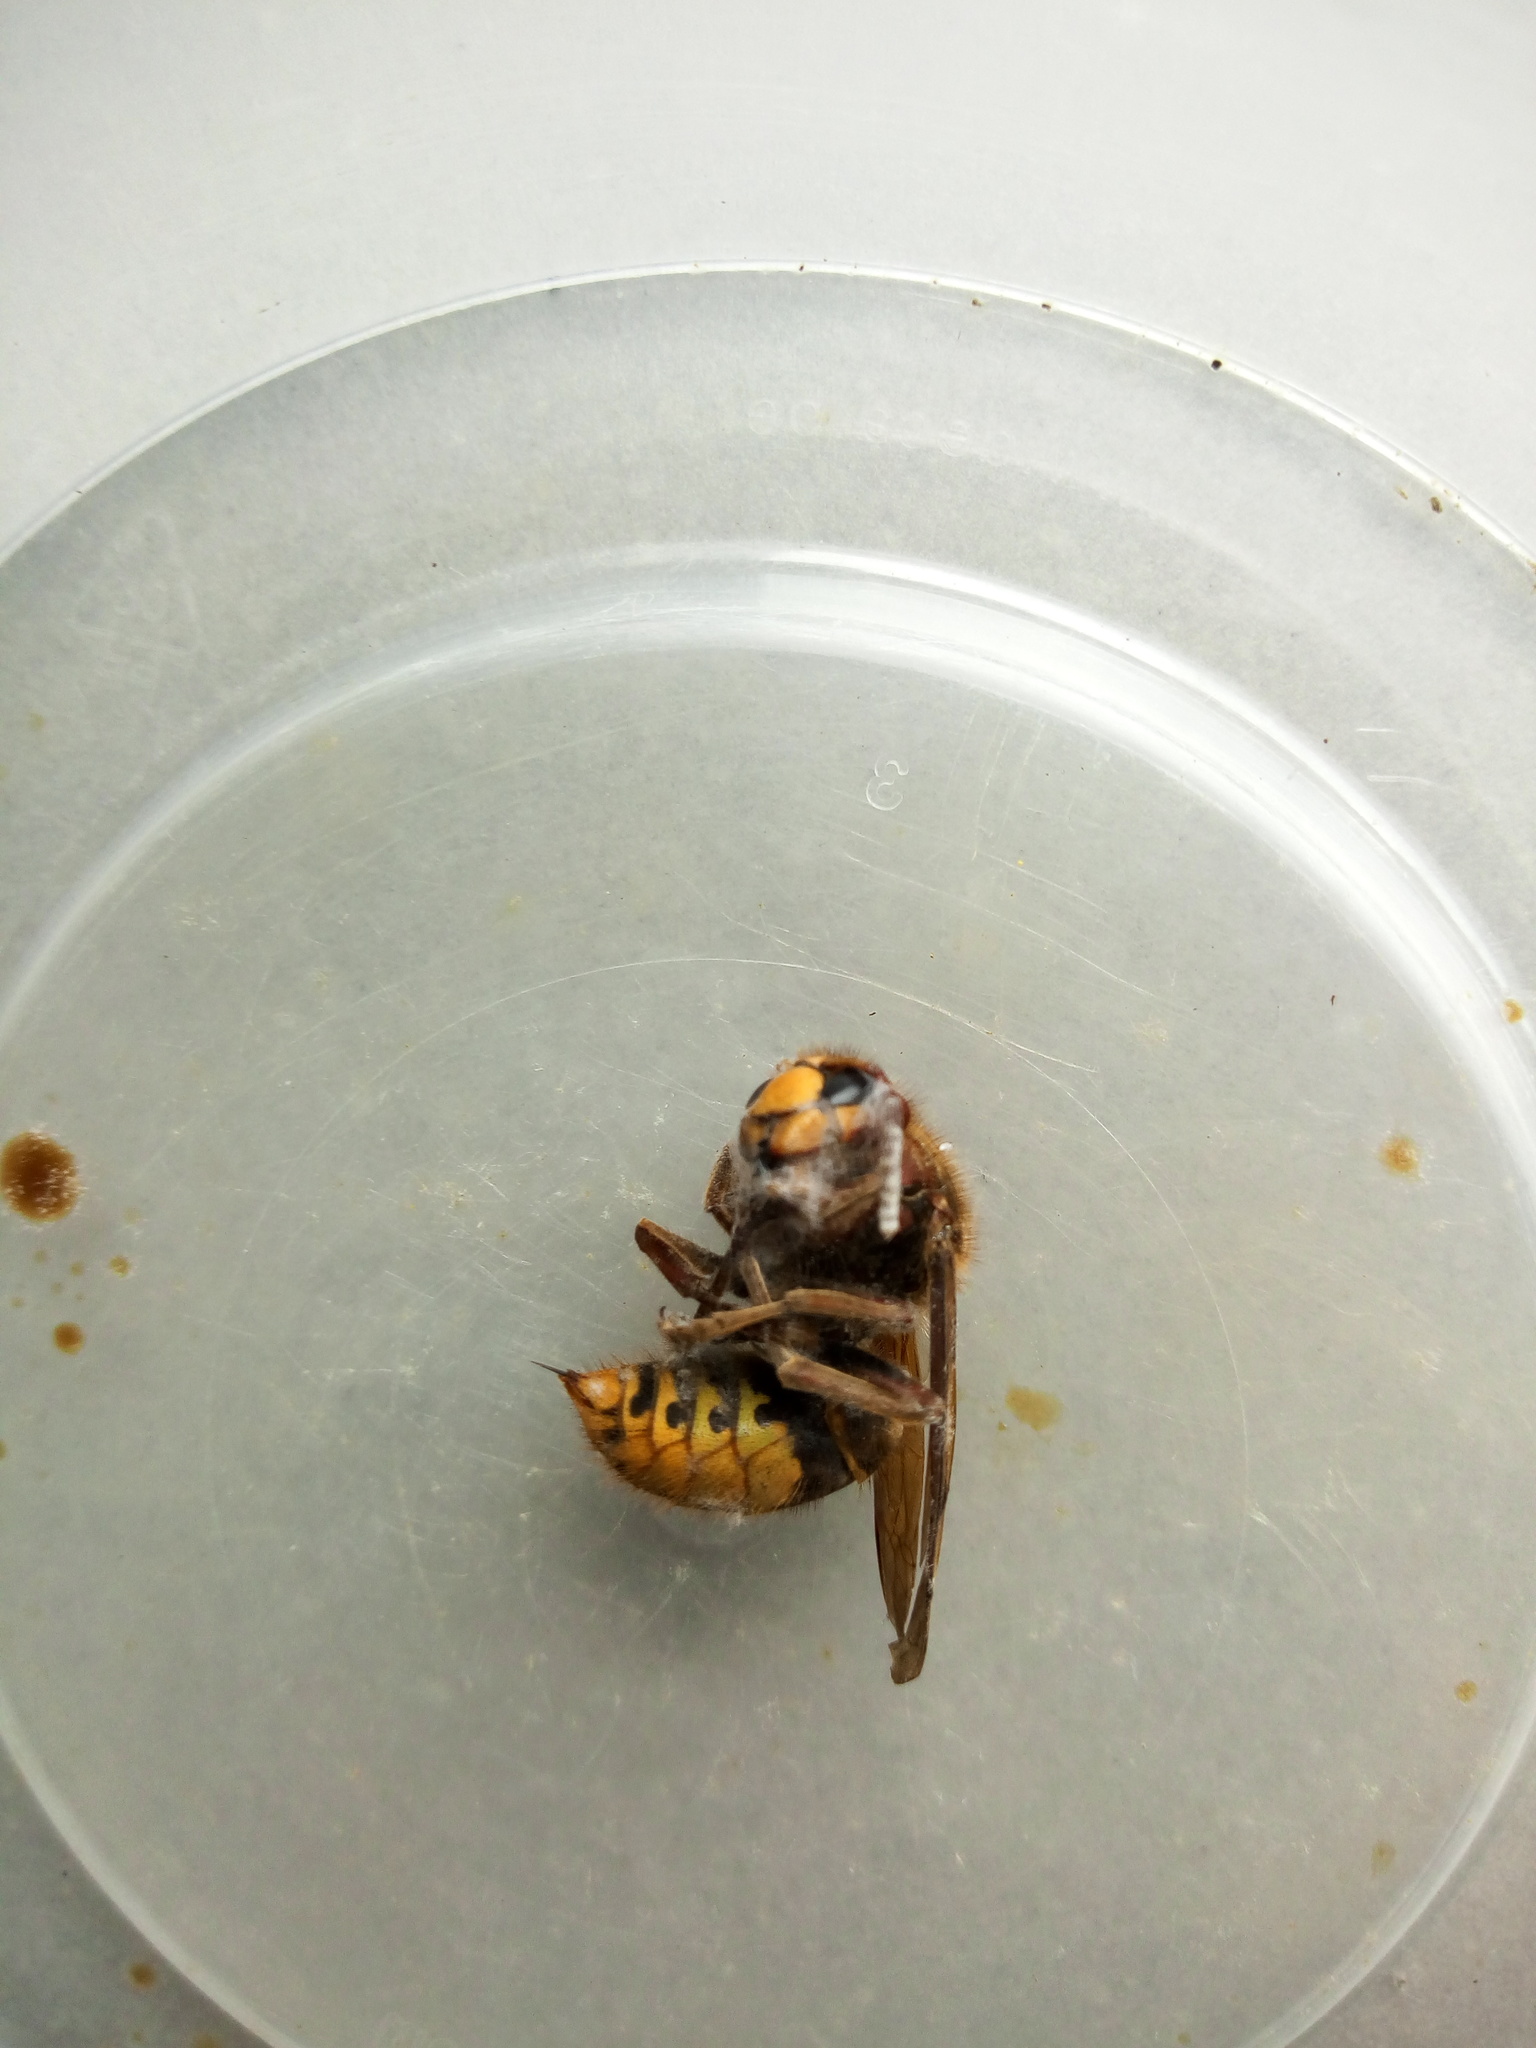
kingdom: Animalia
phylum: Arthropoda
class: Insecta
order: Hymenoptera
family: Vespidae
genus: Vespa
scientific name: Vespa crabro
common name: Hornet
